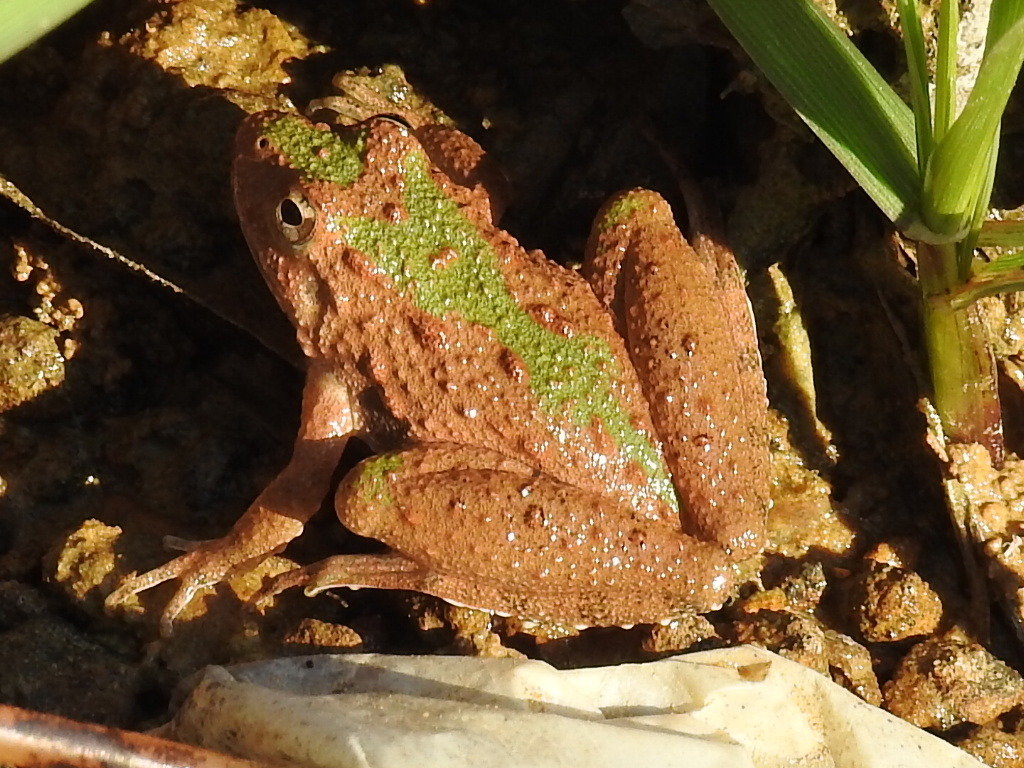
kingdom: Animalia
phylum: Chordata
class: Amphibia
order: Anura
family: Hylidae
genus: Acris
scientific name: Acris blanchardi
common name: Blanchard's cricket frog
